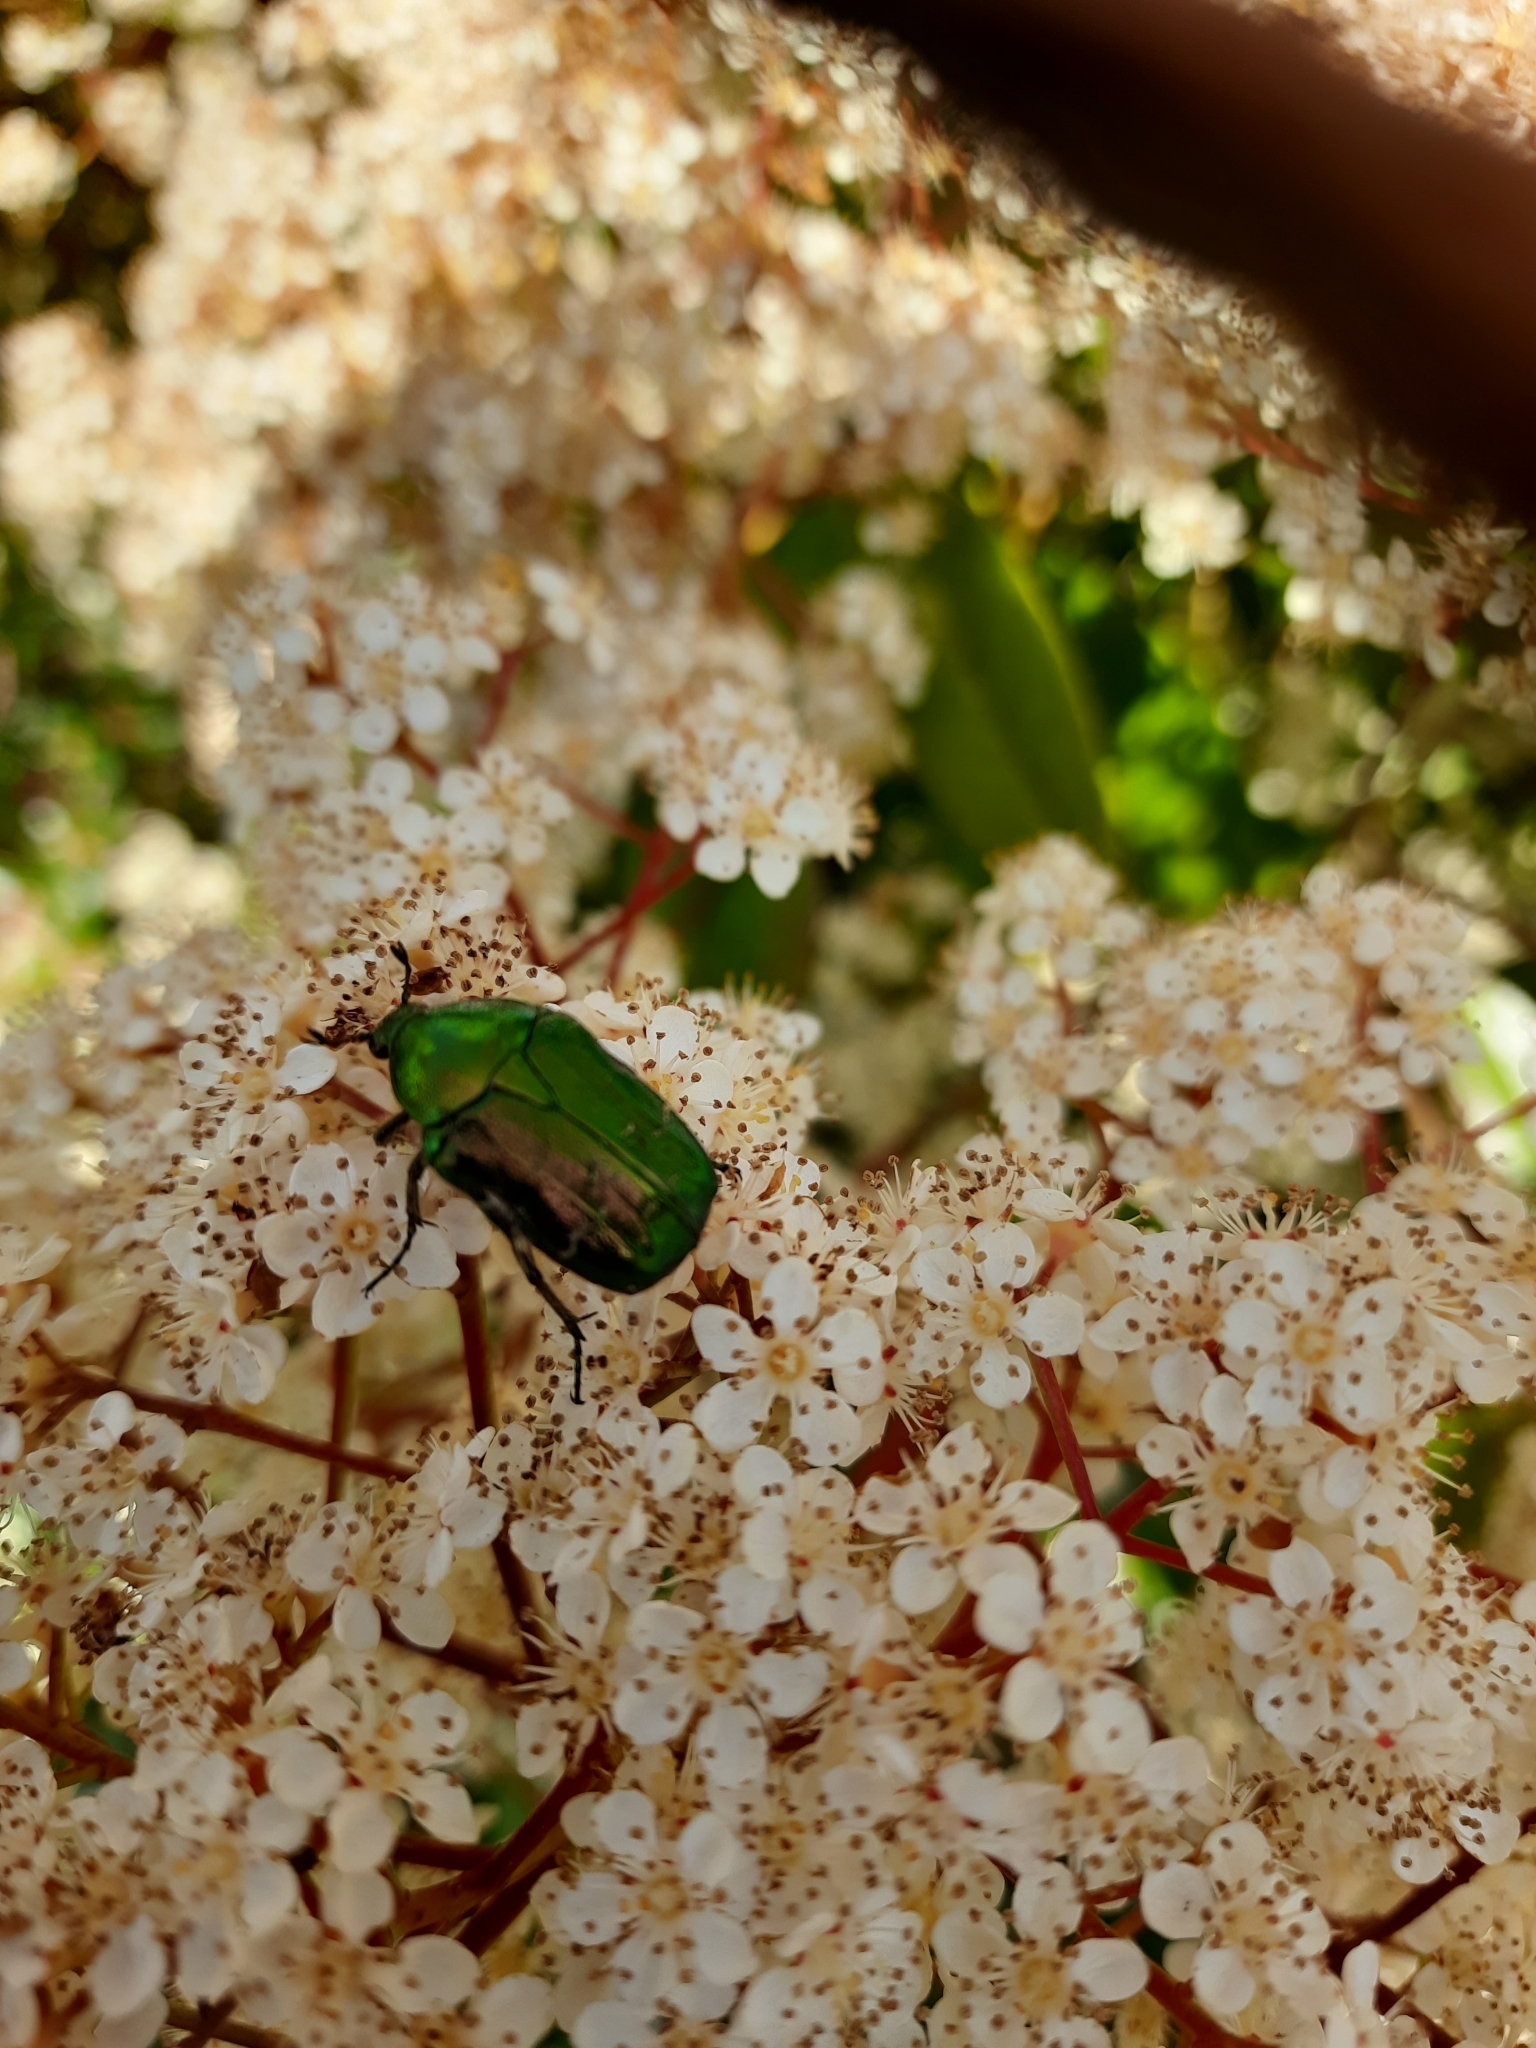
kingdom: Animalia
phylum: Arthropoda
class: Insecta
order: Coleoptera
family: Scarabaeidae
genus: Cetonia
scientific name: Cetonia aurata
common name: Rose chafer
